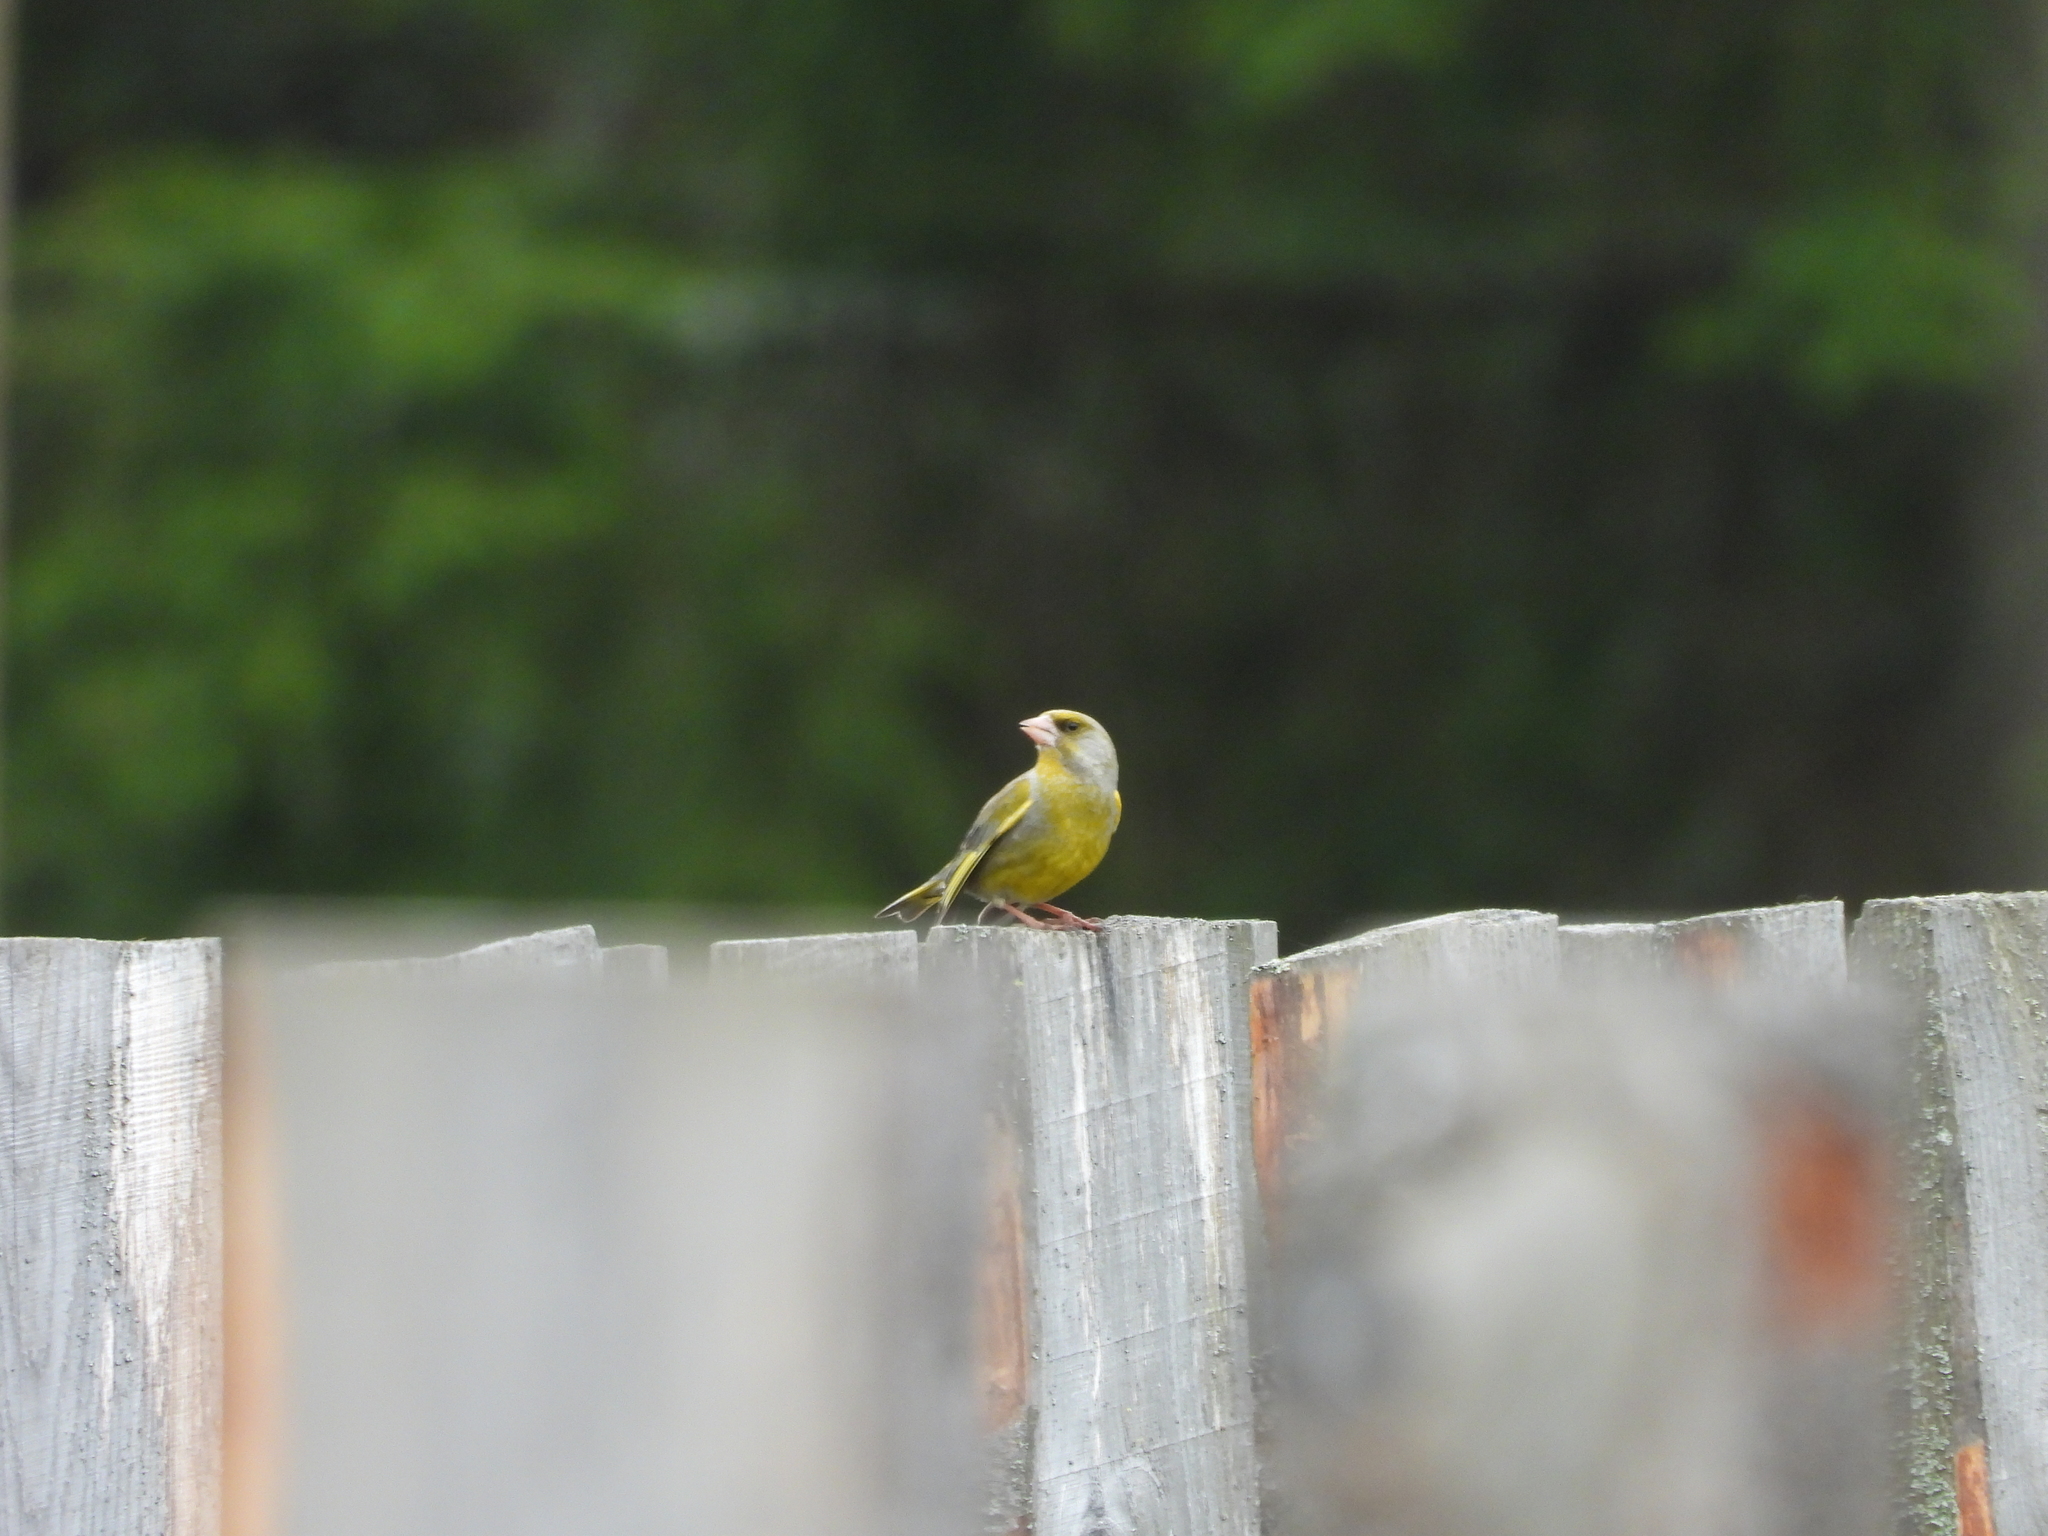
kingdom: Plantae
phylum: Tracheophyta
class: Liliopsida
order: Poales
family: Poaceae
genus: Chloris
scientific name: Chloris chloris
